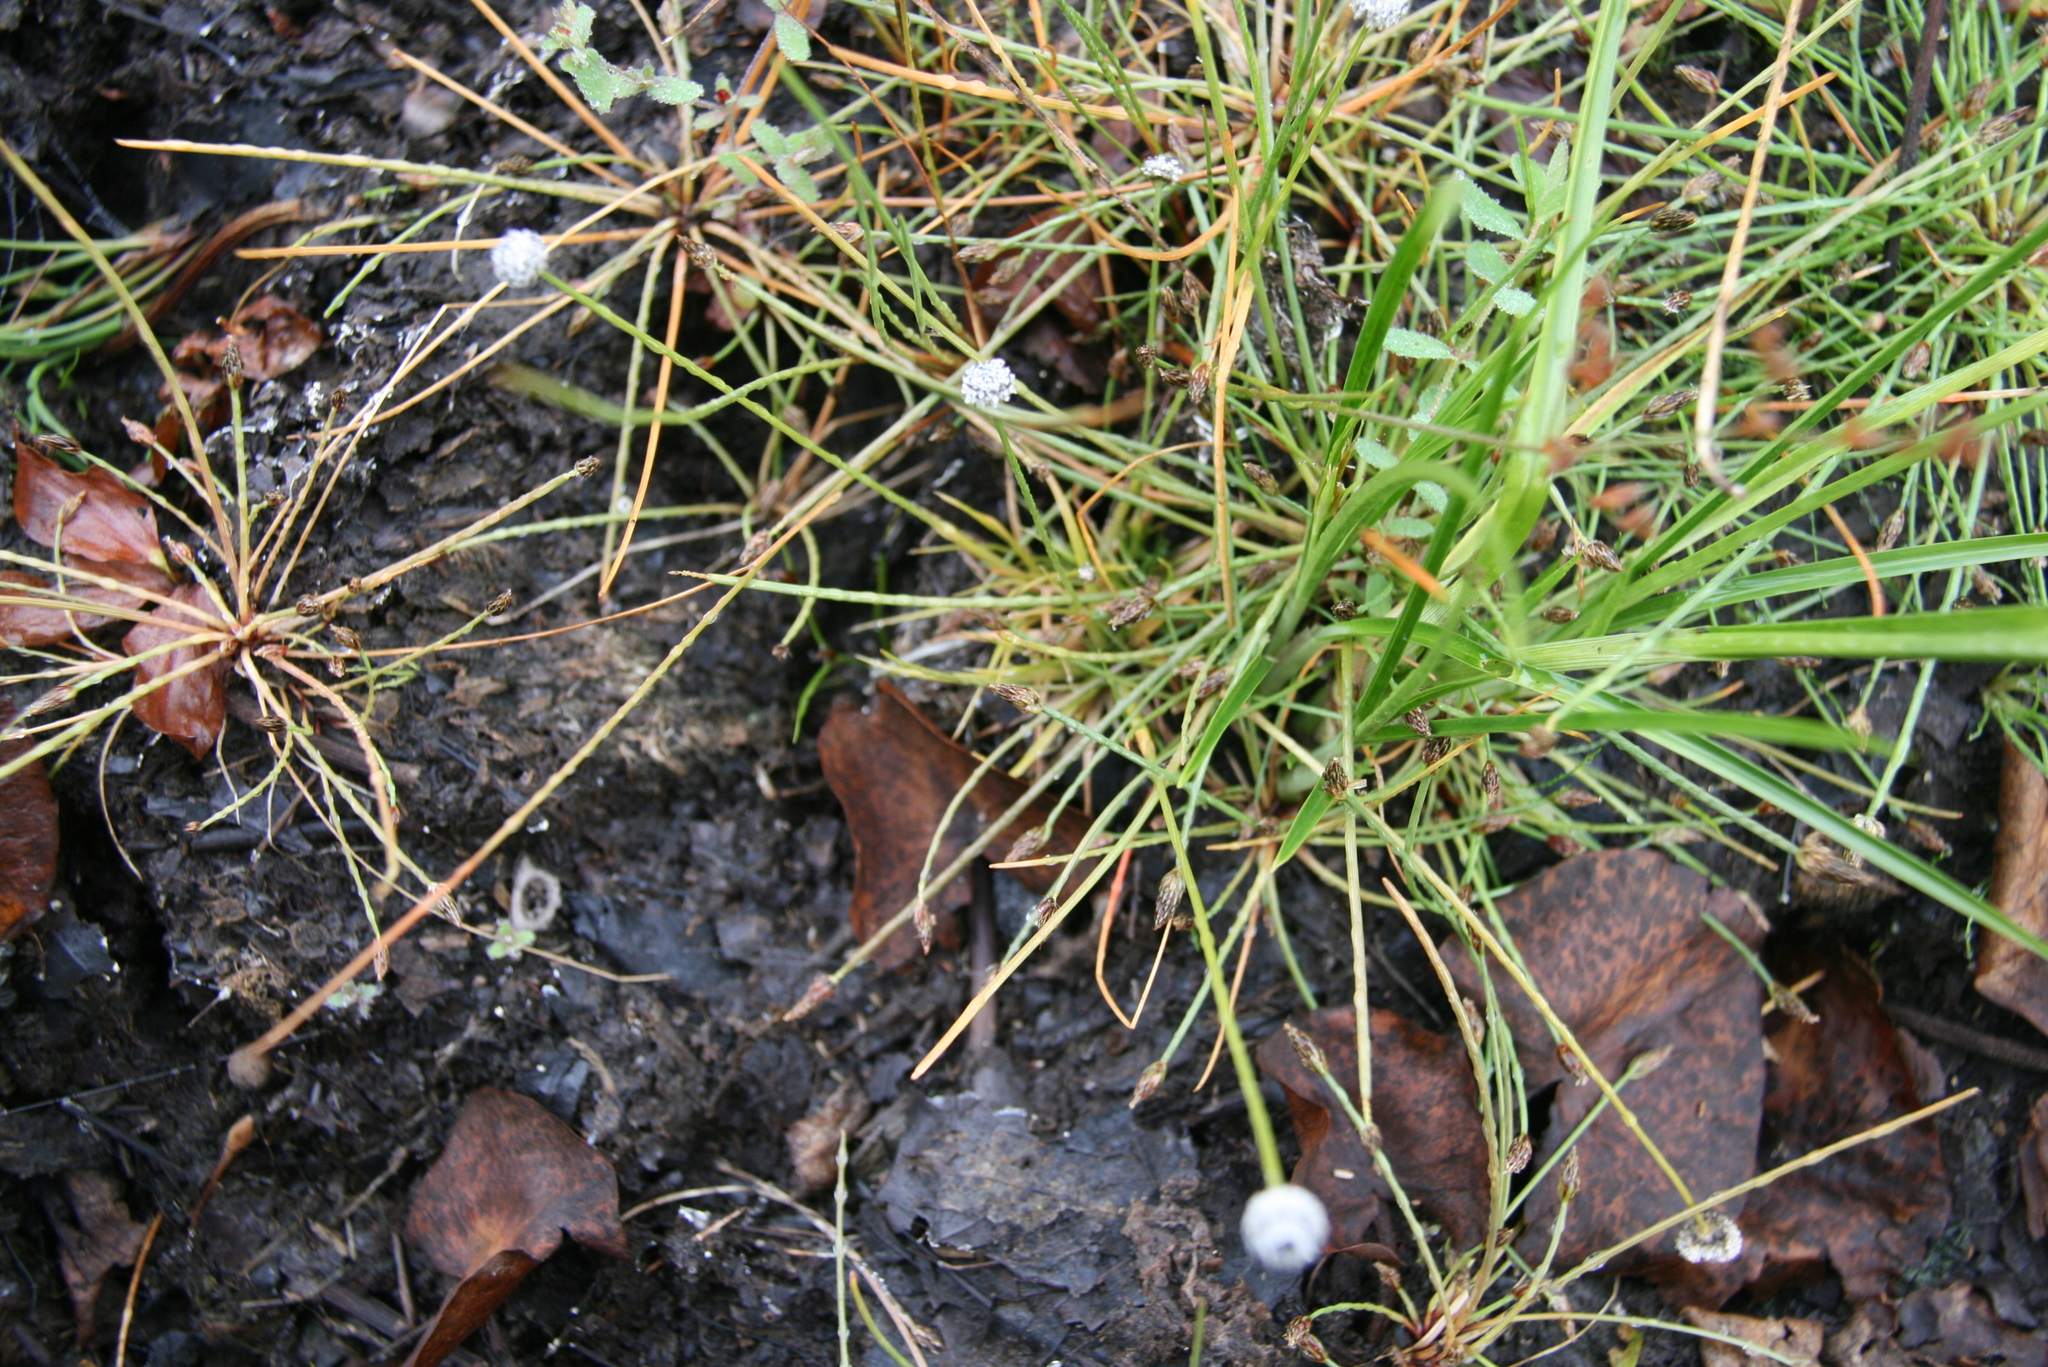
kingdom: Plantae
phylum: Tracheophyta
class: Liliopsida
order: Poales
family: Eriocaulaceae
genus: Eriocaulon
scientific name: Eriocaulon aquaticum
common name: Pipewort
